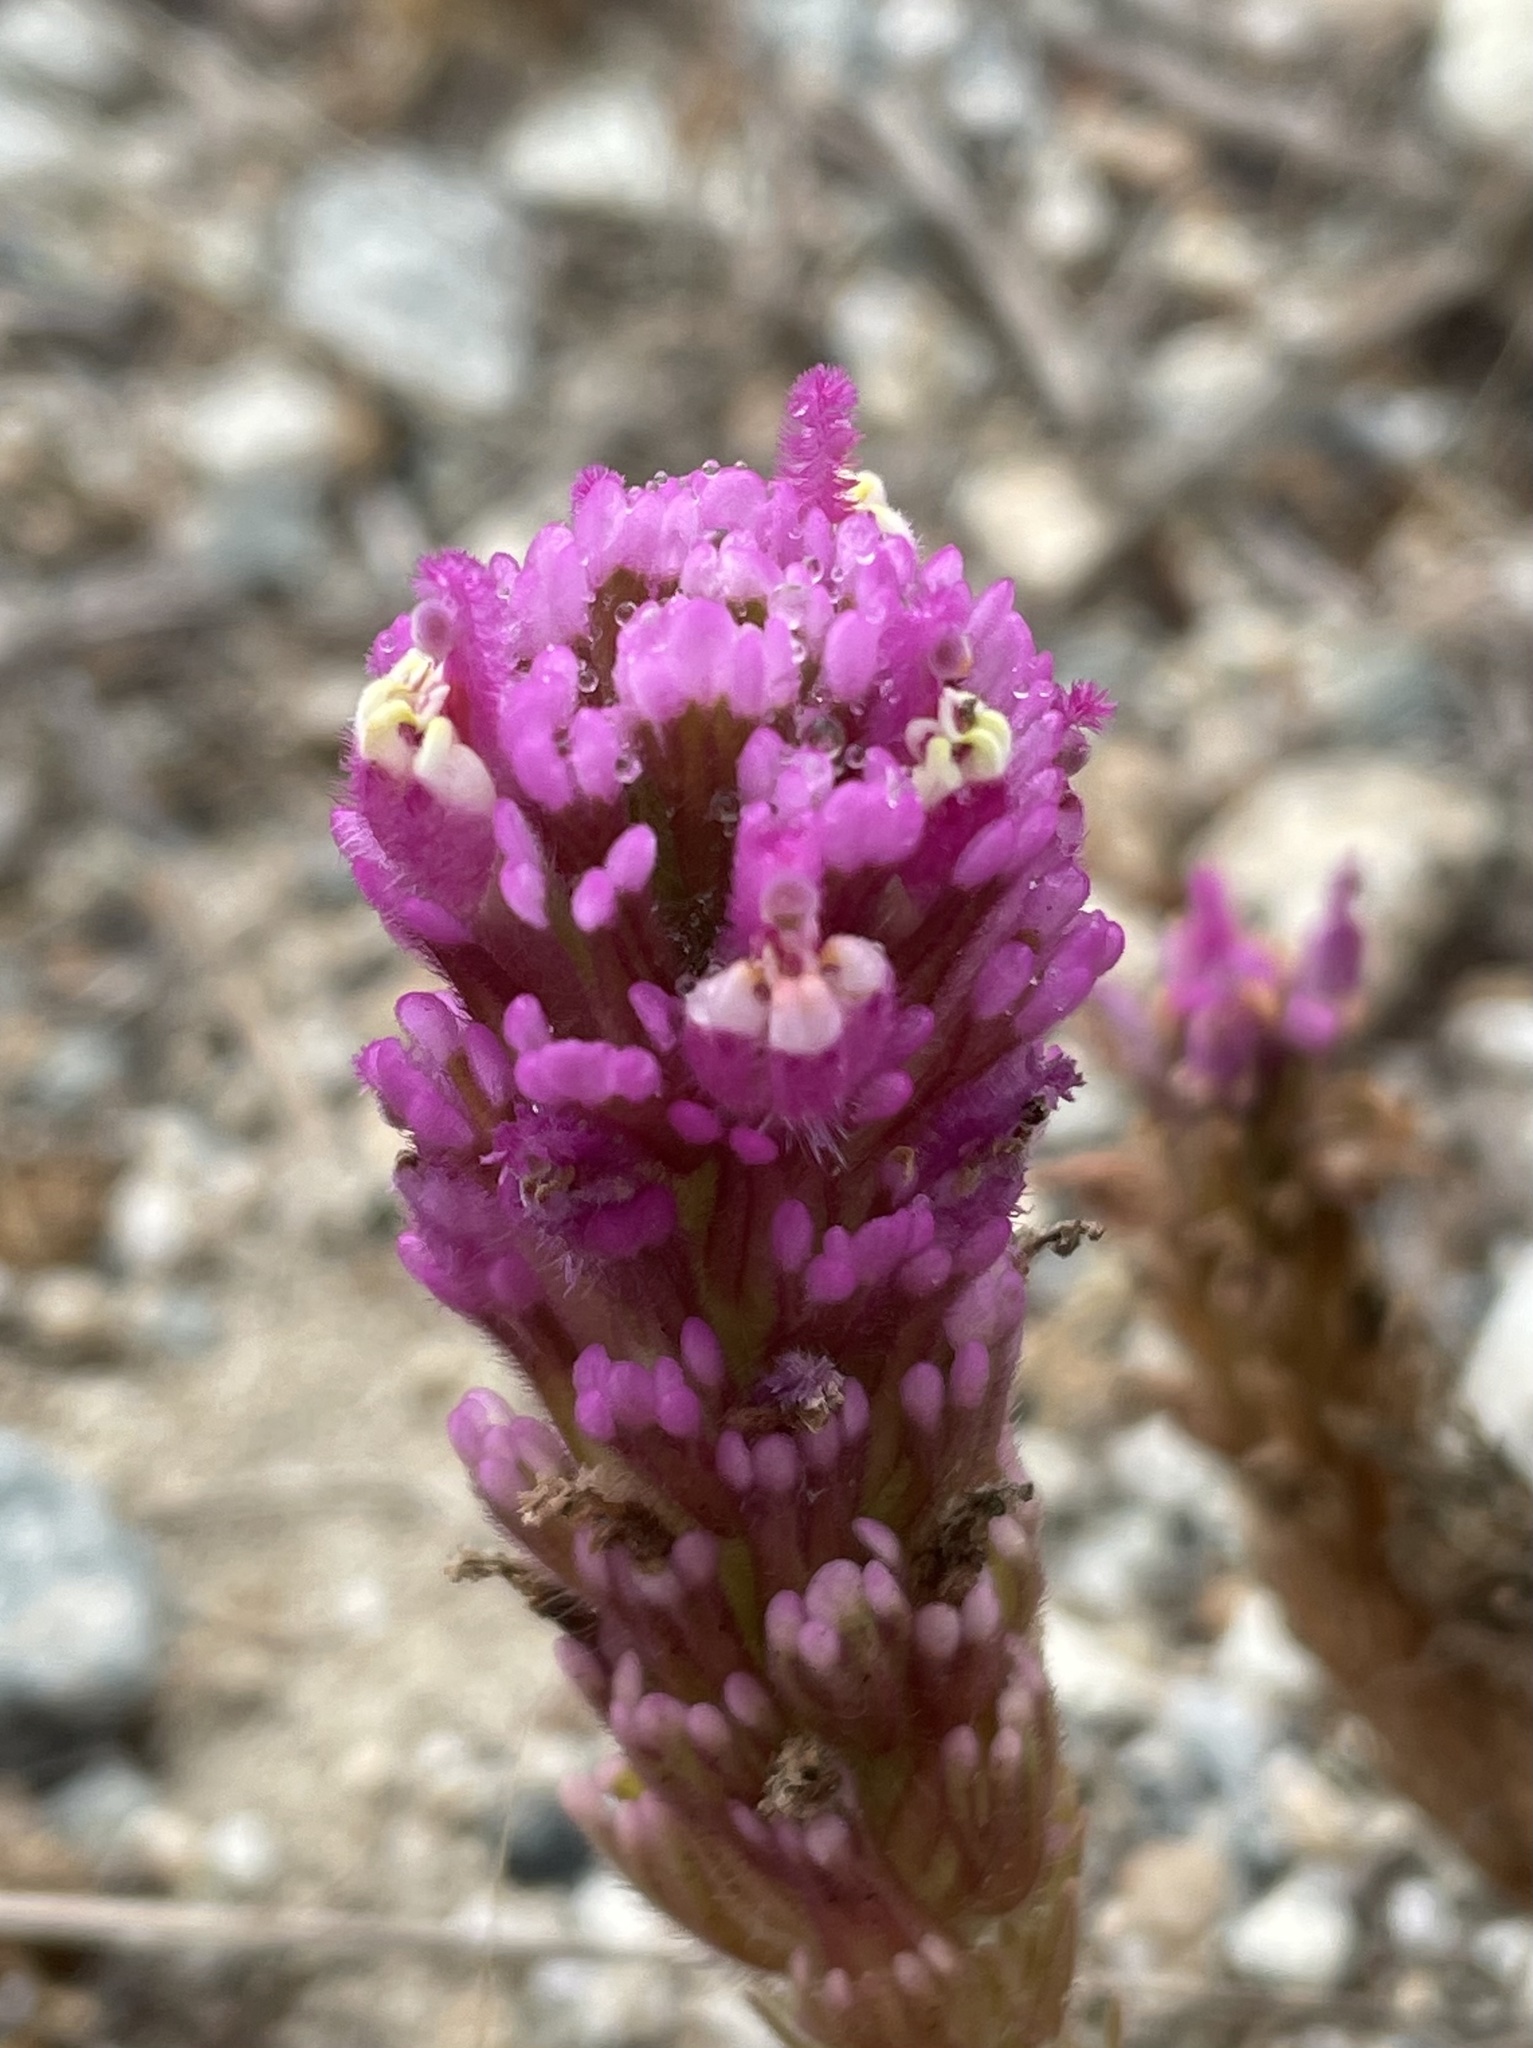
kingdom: Plantae
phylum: Tracheophyta
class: Magnoliopsida
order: Lamiales
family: Orobanchaceae
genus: Castilleja
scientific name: Castilleja exserta
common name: Purple owl-clover
